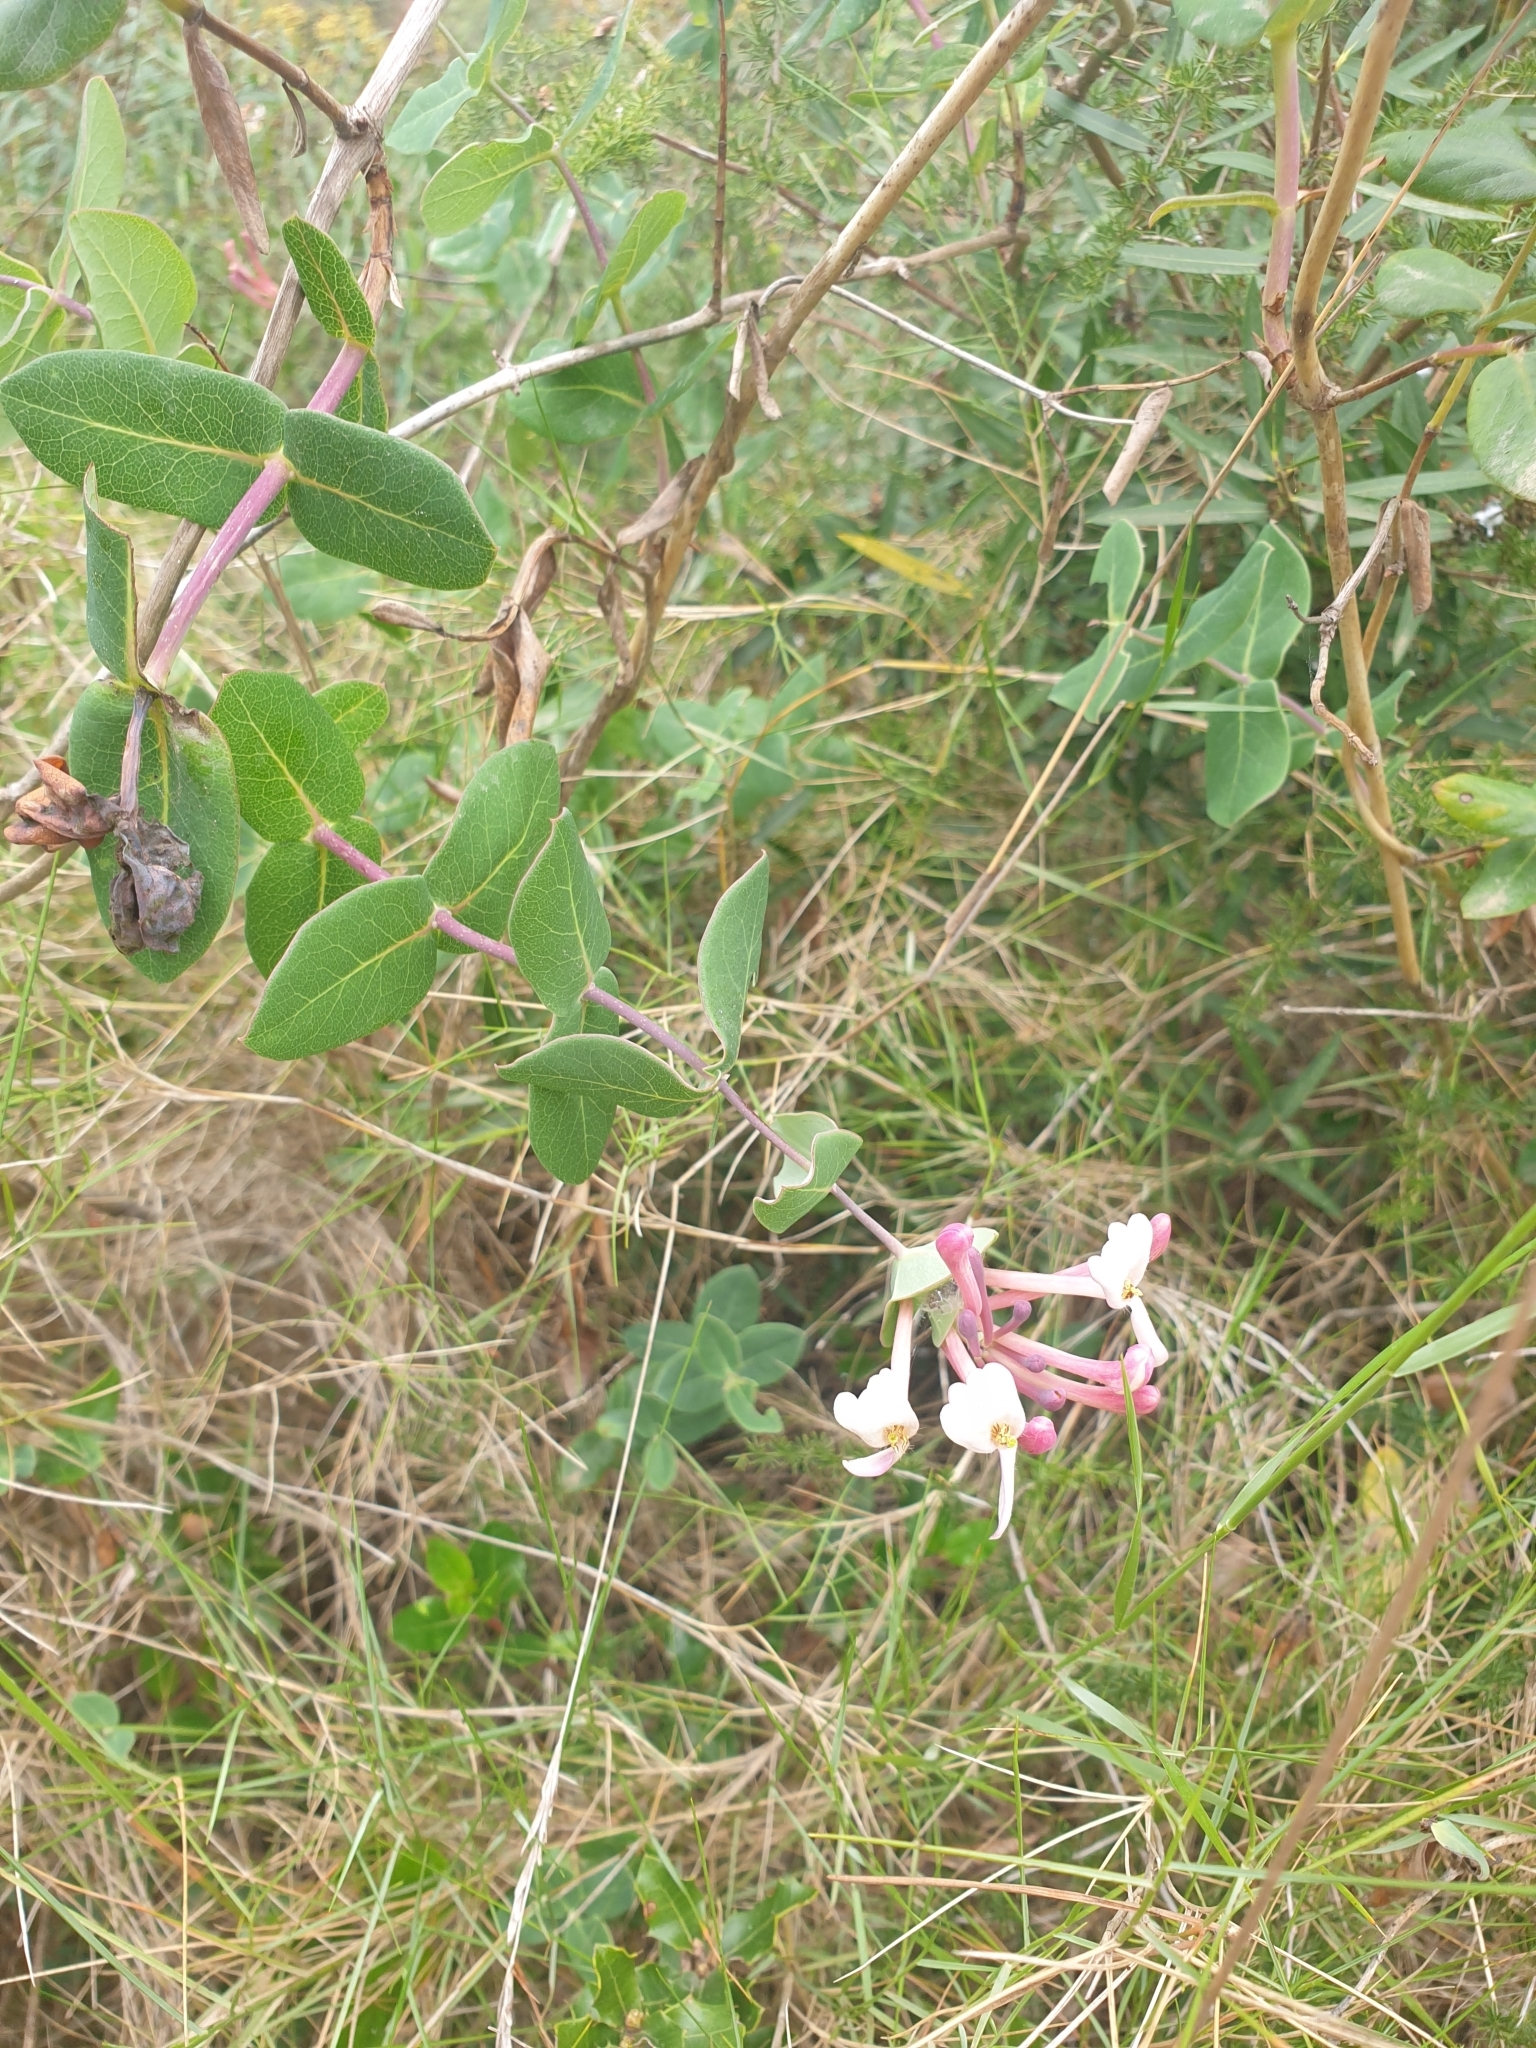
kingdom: Plantae
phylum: Tracheophyta
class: Magnoliopsida
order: Dipsacales
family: Caprifoliaceae
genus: Lonicera
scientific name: Lonicera implexa
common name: Minorca honeysuckle
